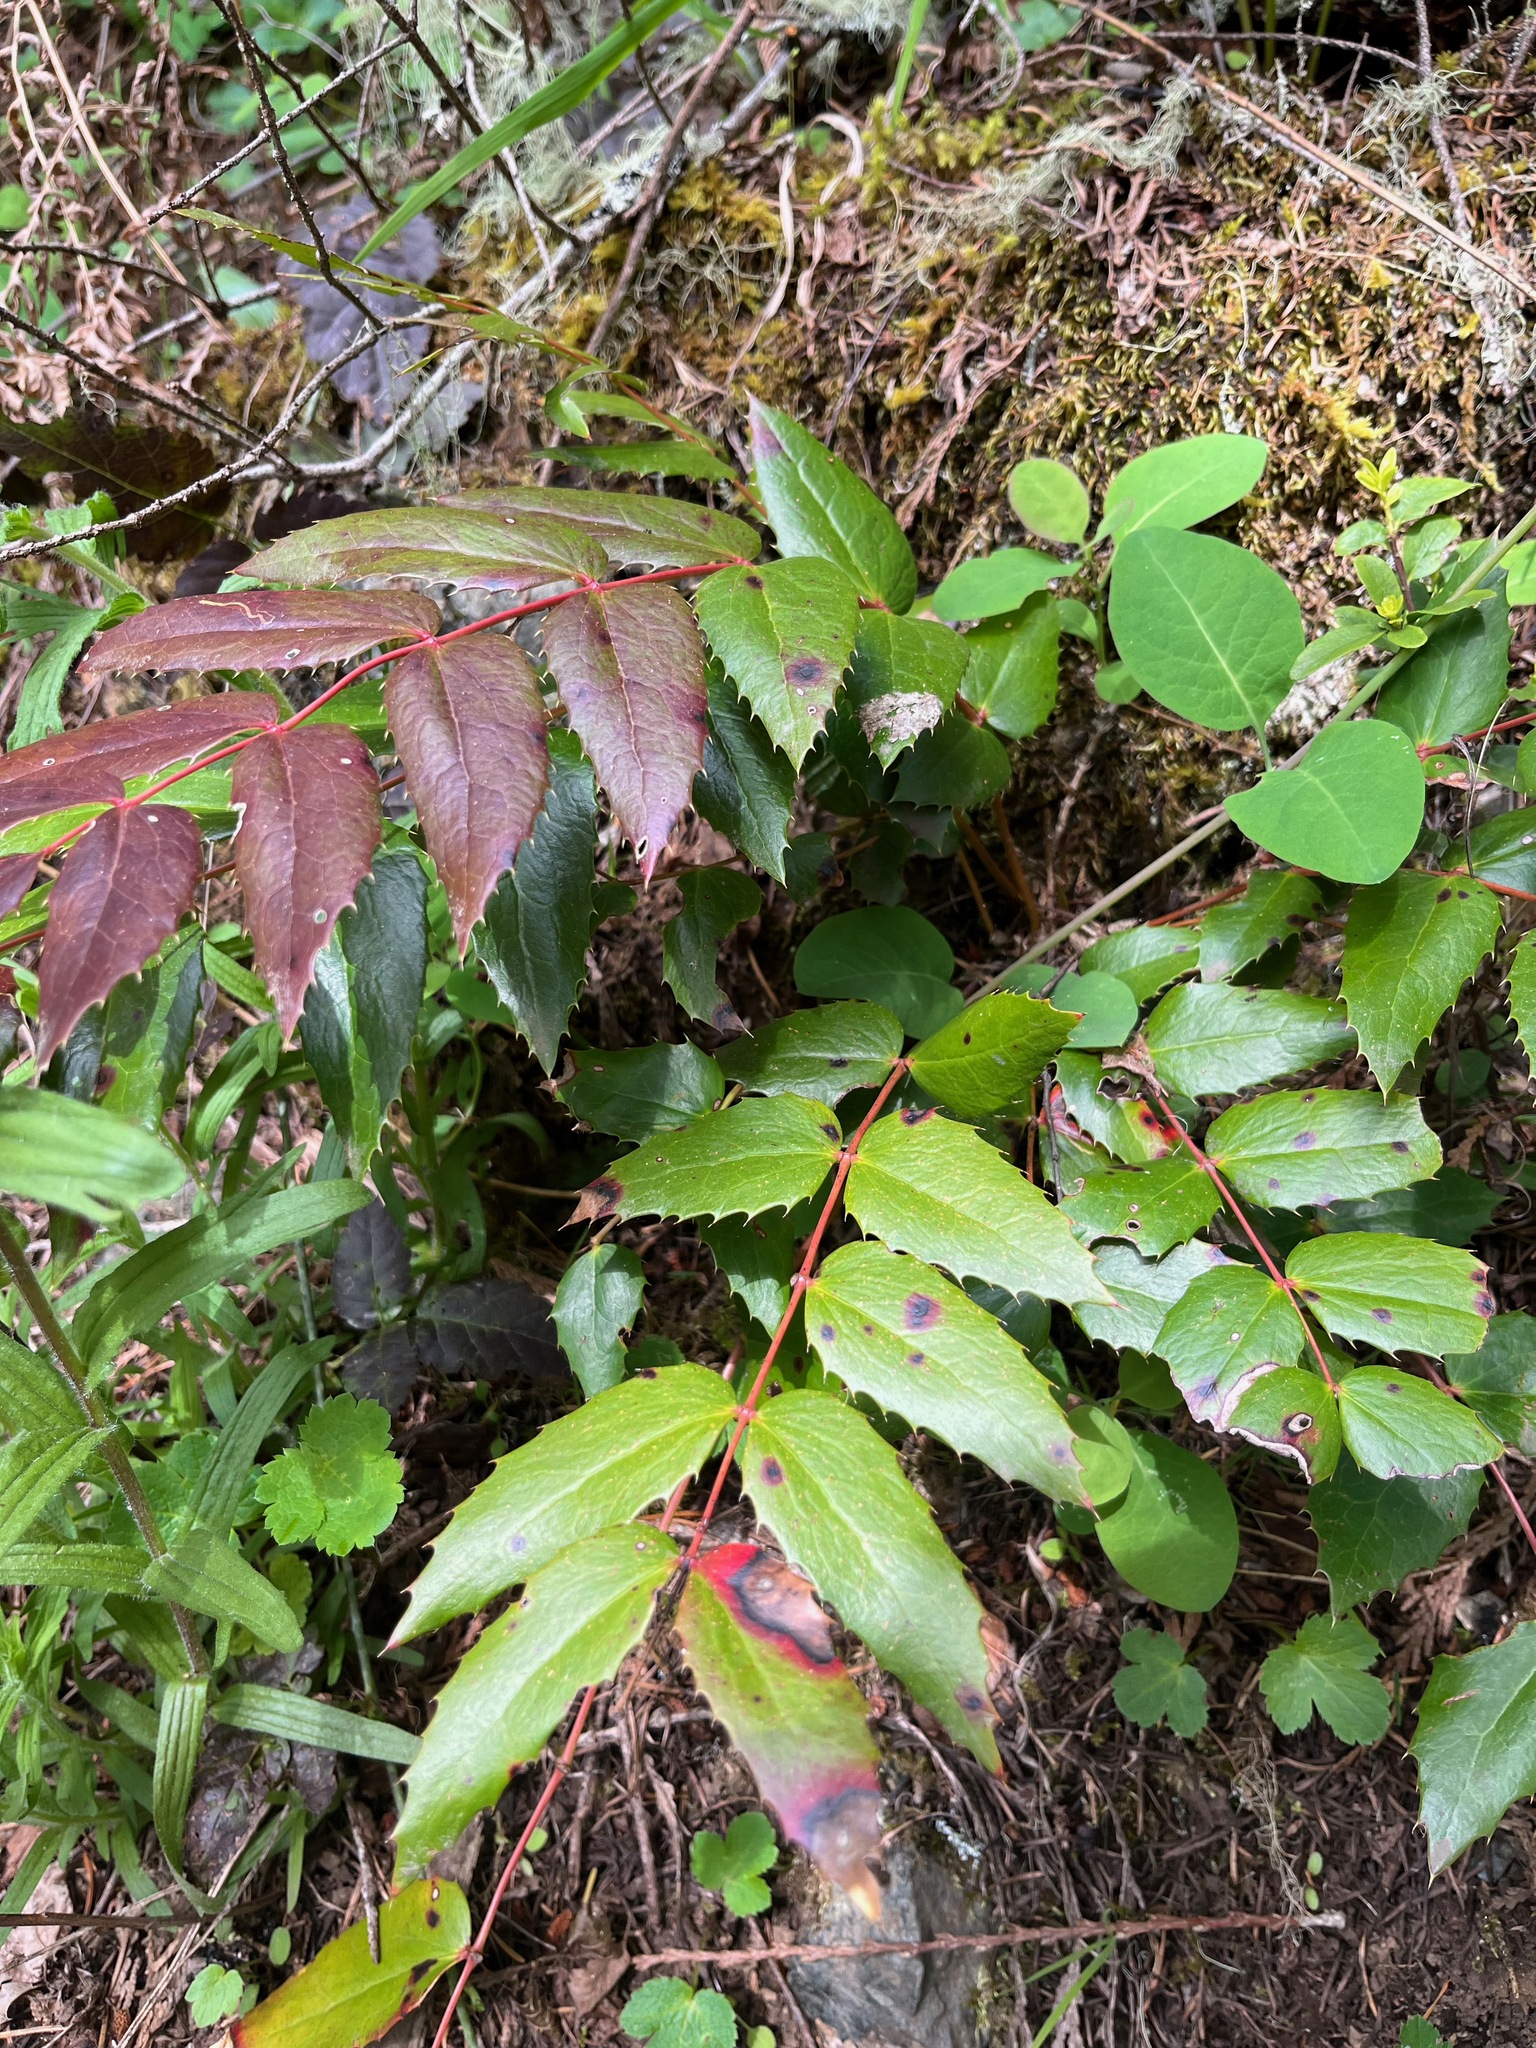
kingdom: Plantae
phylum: Tracheophyta
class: Magnoliopsida
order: Ranunculales
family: Berberidaceae
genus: Mahonia
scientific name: Mahonia nervosa
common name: Cascade oregon-grape
